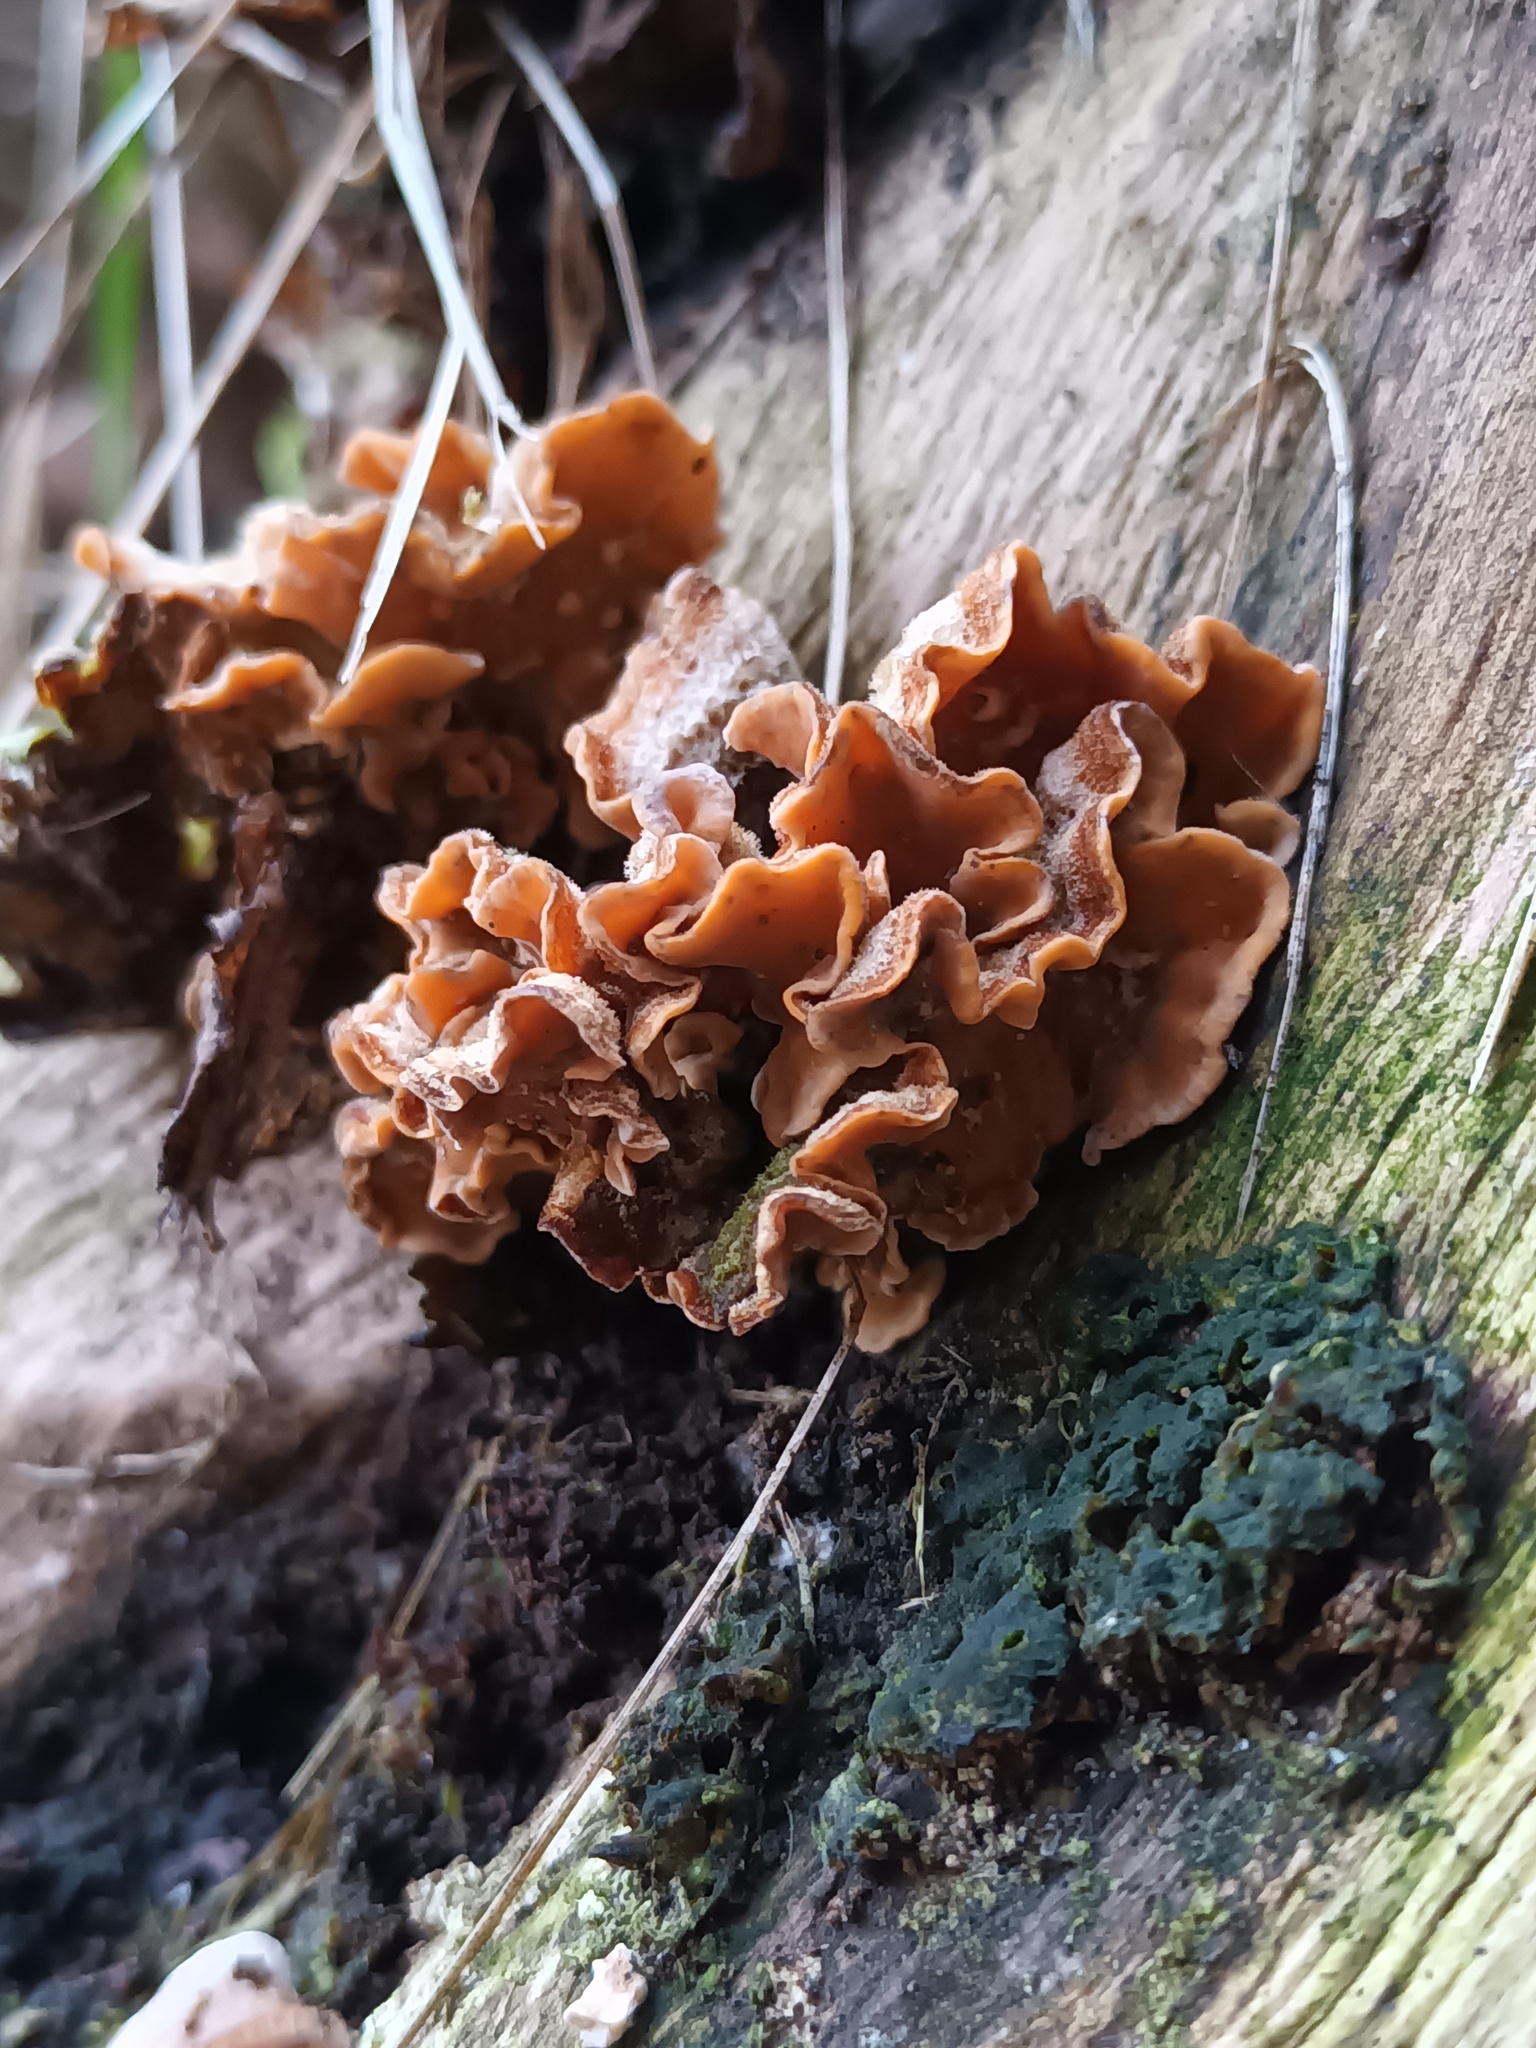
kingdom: Fungi
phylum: Basidiomycota
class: Agaricomycetes
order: Russulales
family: Stereaceae
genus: Stereum
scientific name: Stereum hirsutum
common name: Hairy curtain crust
